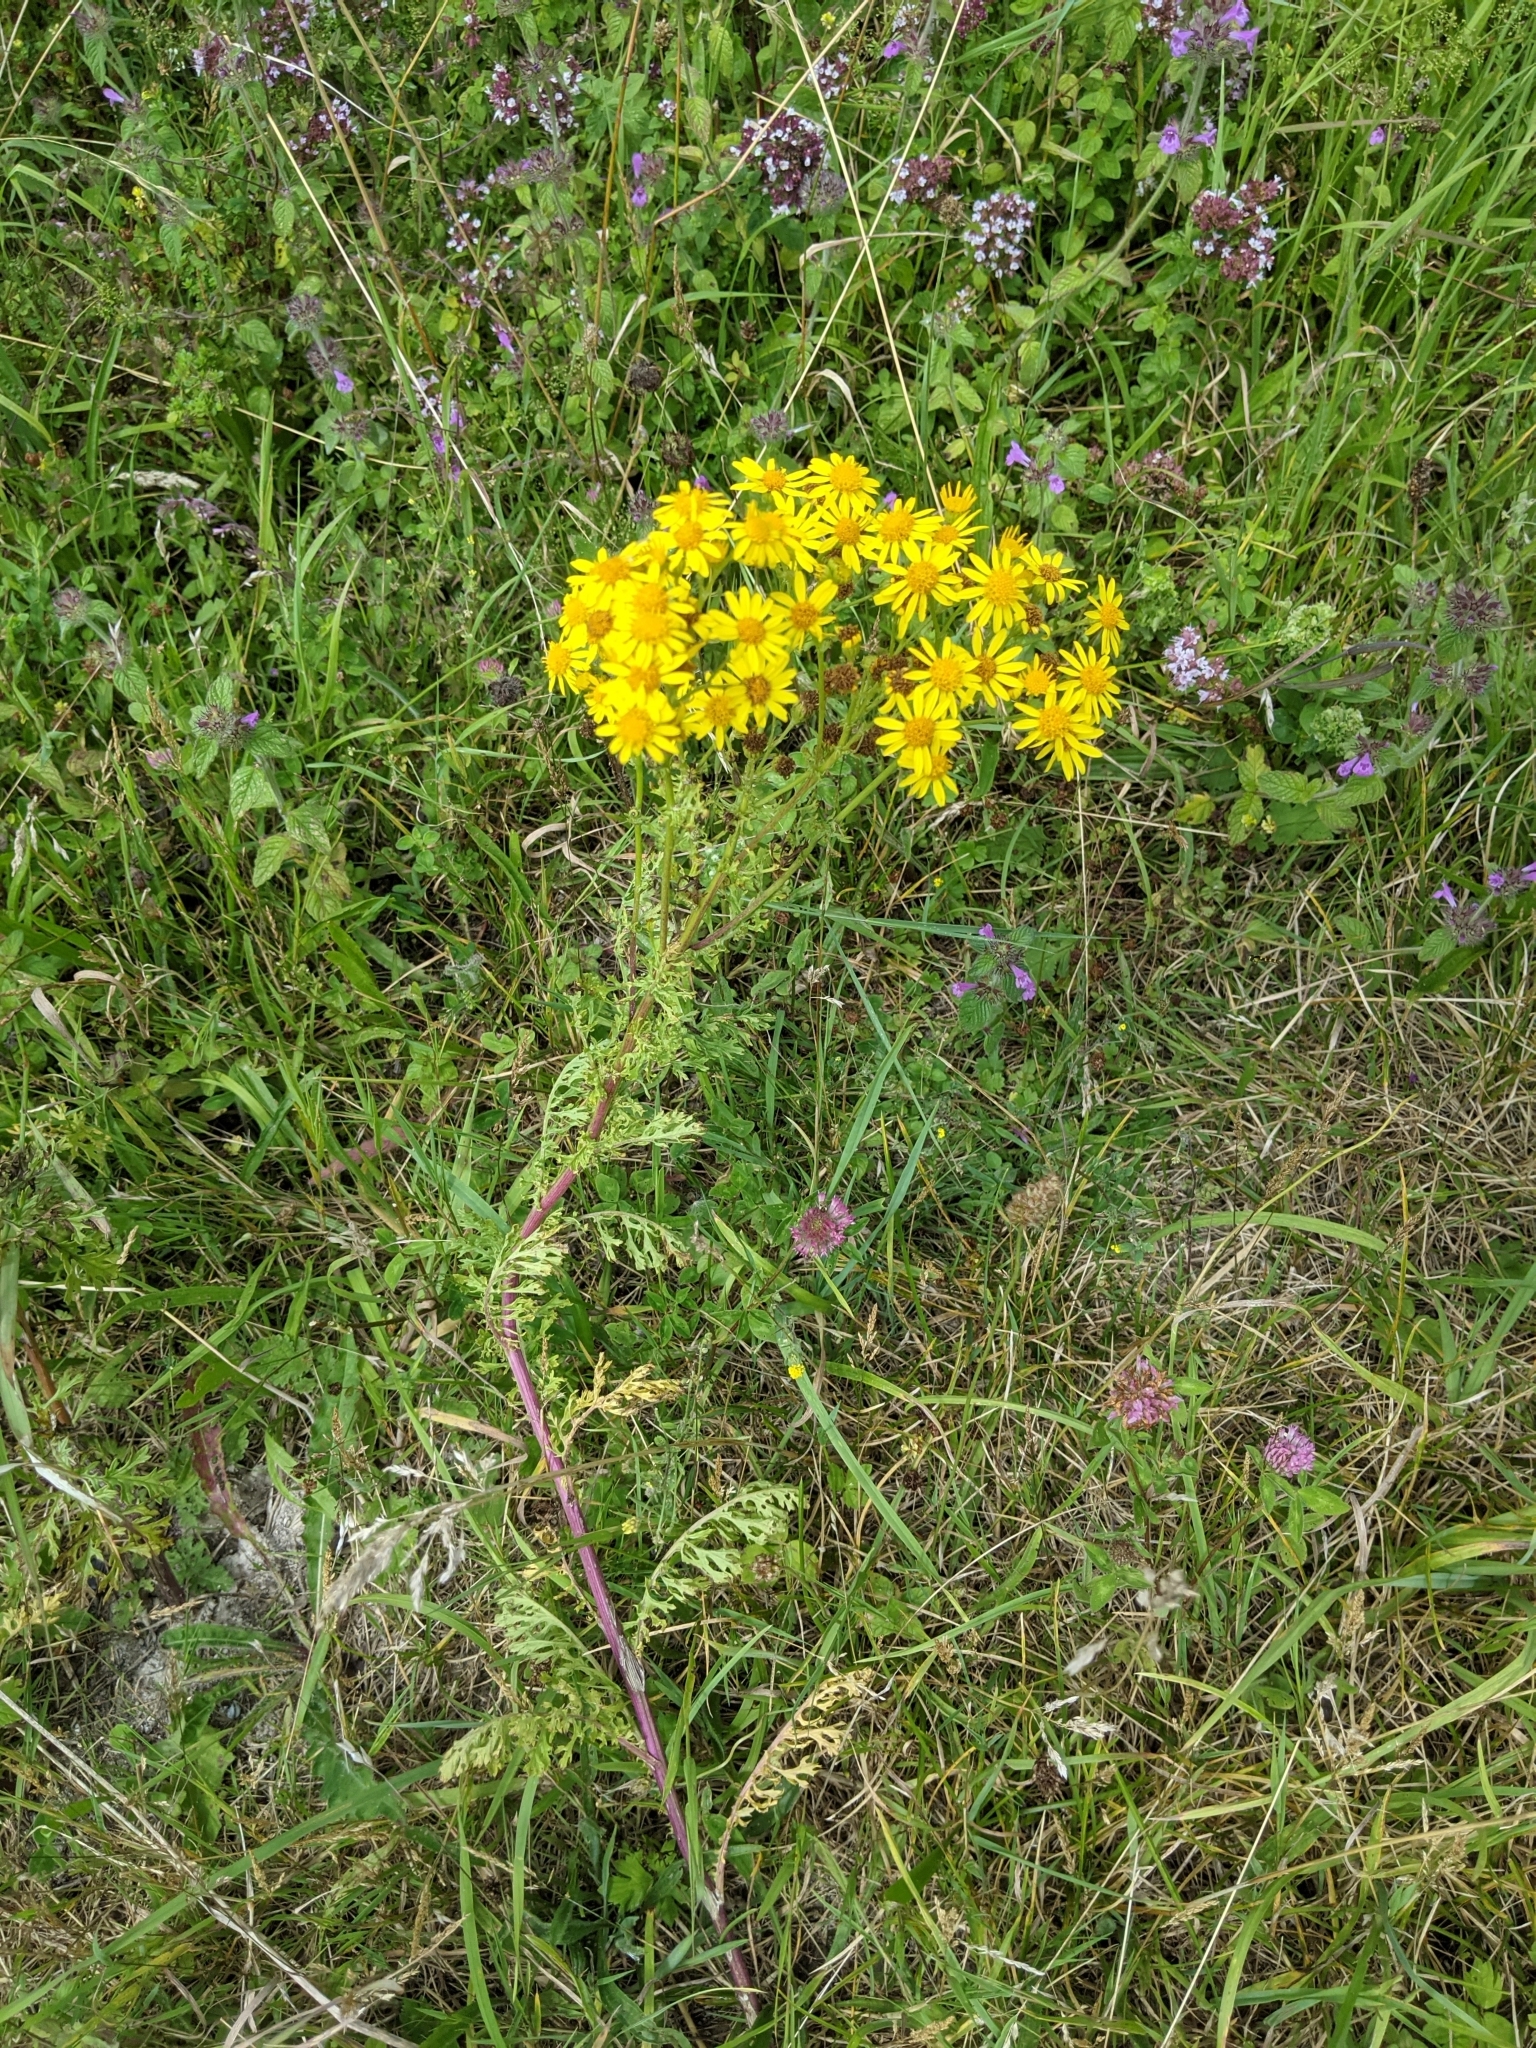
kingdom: Plantae
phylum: Tracheophyta
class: Magnoliopsida
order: Asterales
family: Asteraceae
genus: Jacobaea
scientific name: Jacobaea vulgaris
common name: Stinking willie
